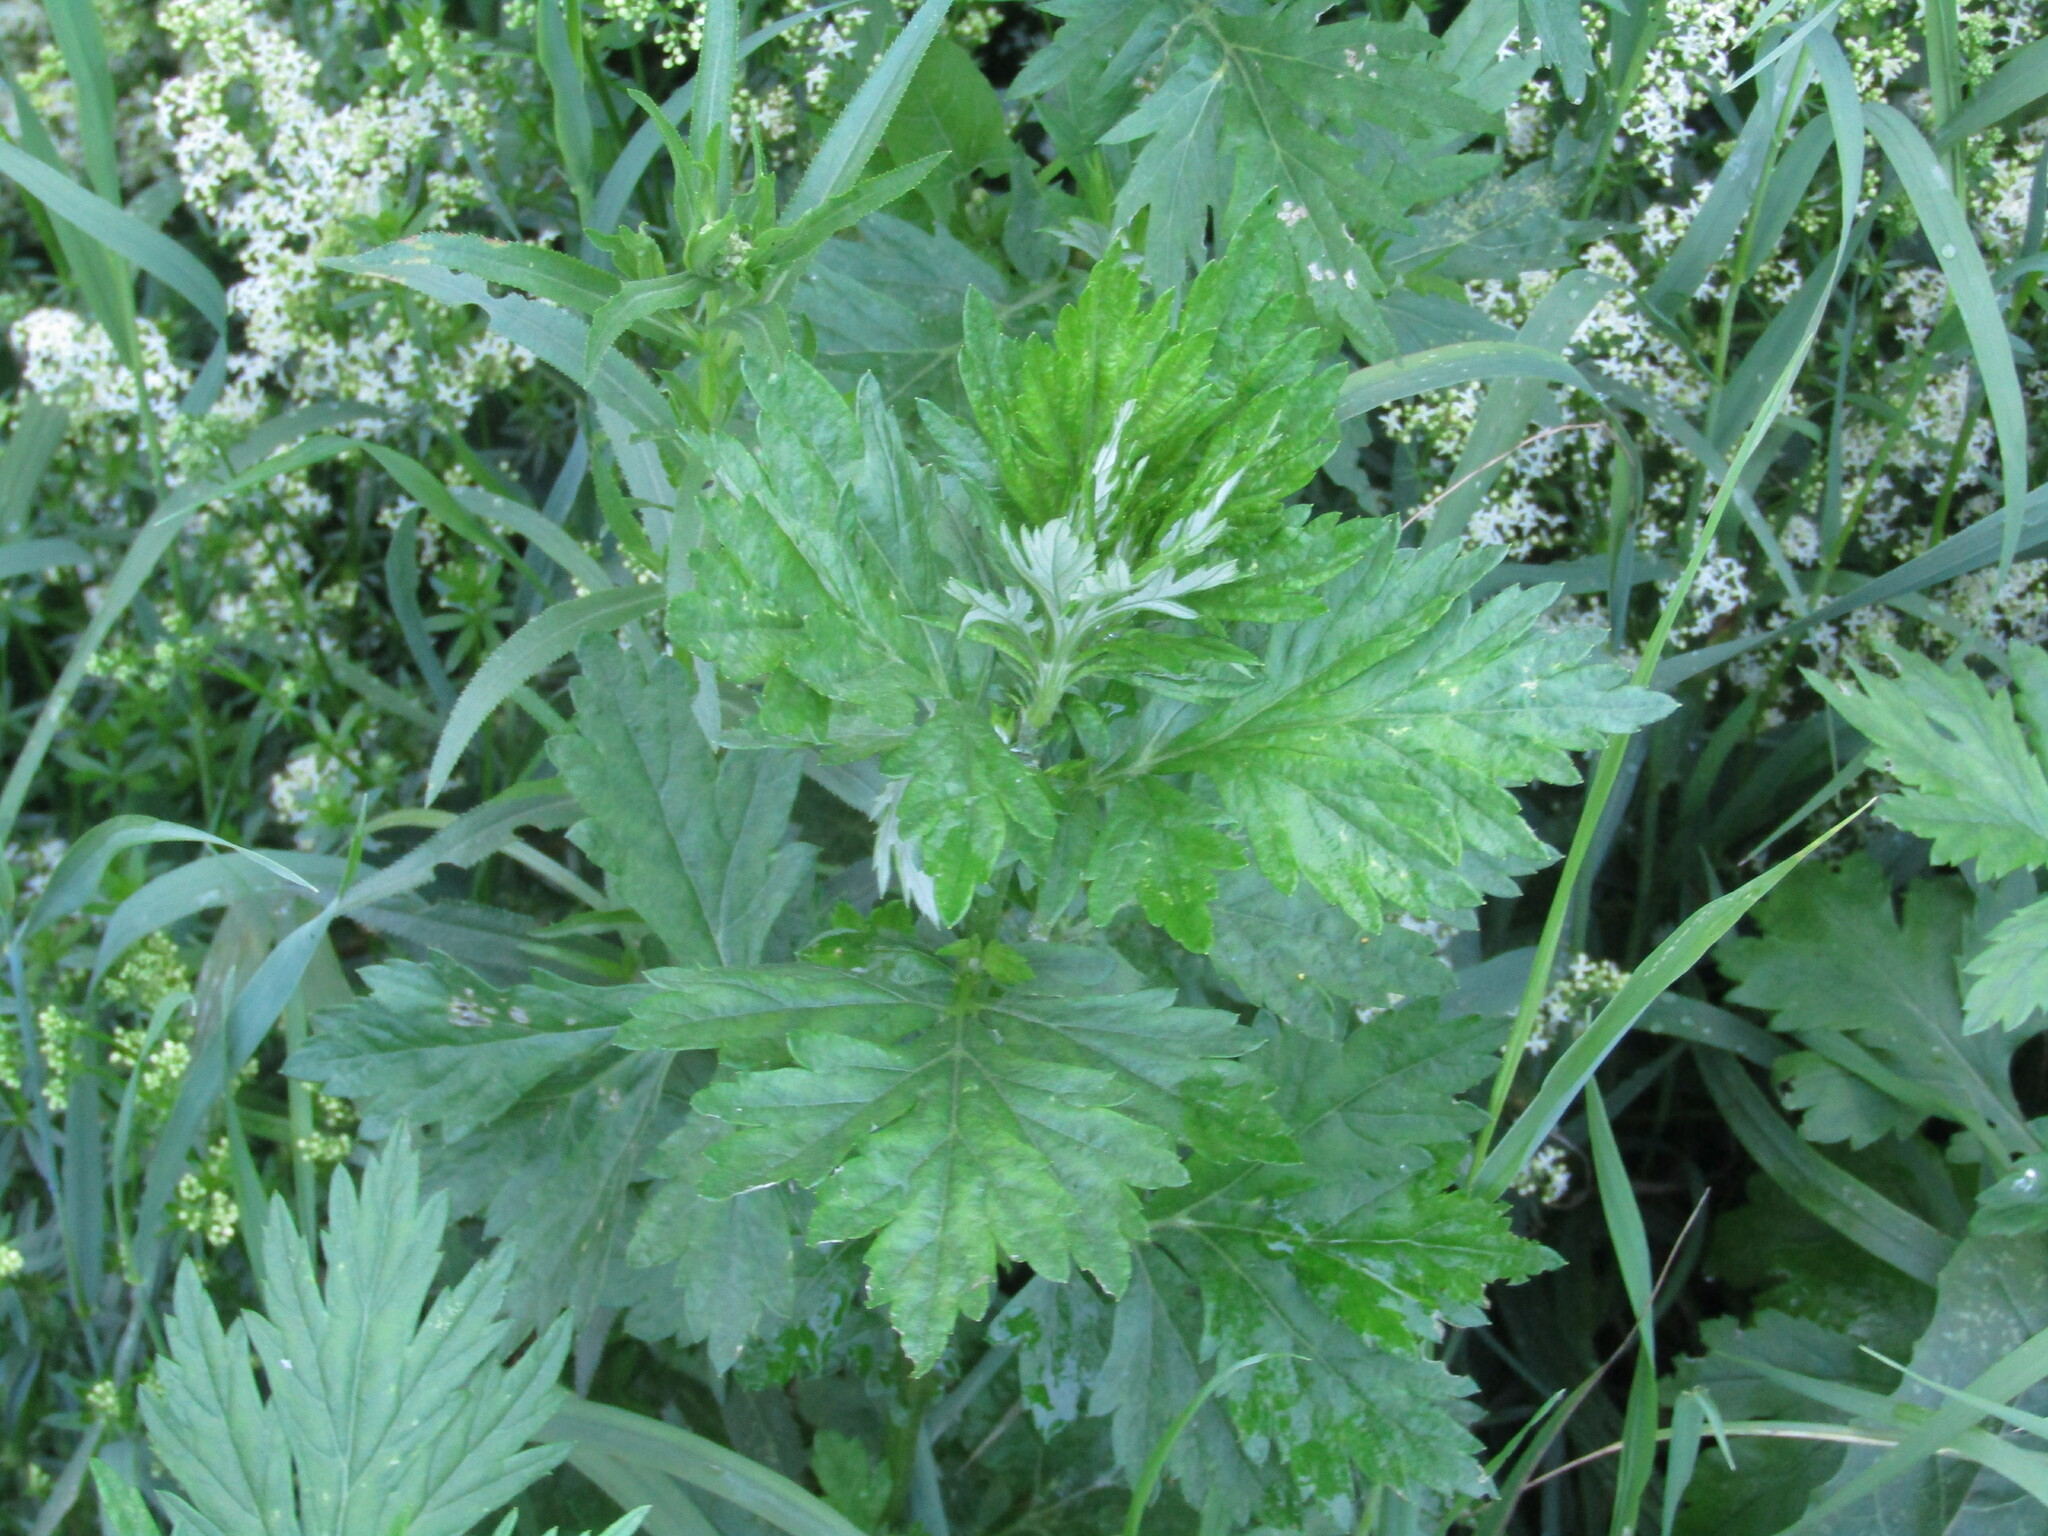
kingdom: Plantae
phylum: Tracheophyta
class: Magnoliopsida
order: Asterales
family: Asteraceae
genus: Artemisia
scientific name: Artemisia vulgaris
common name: Mugwort
